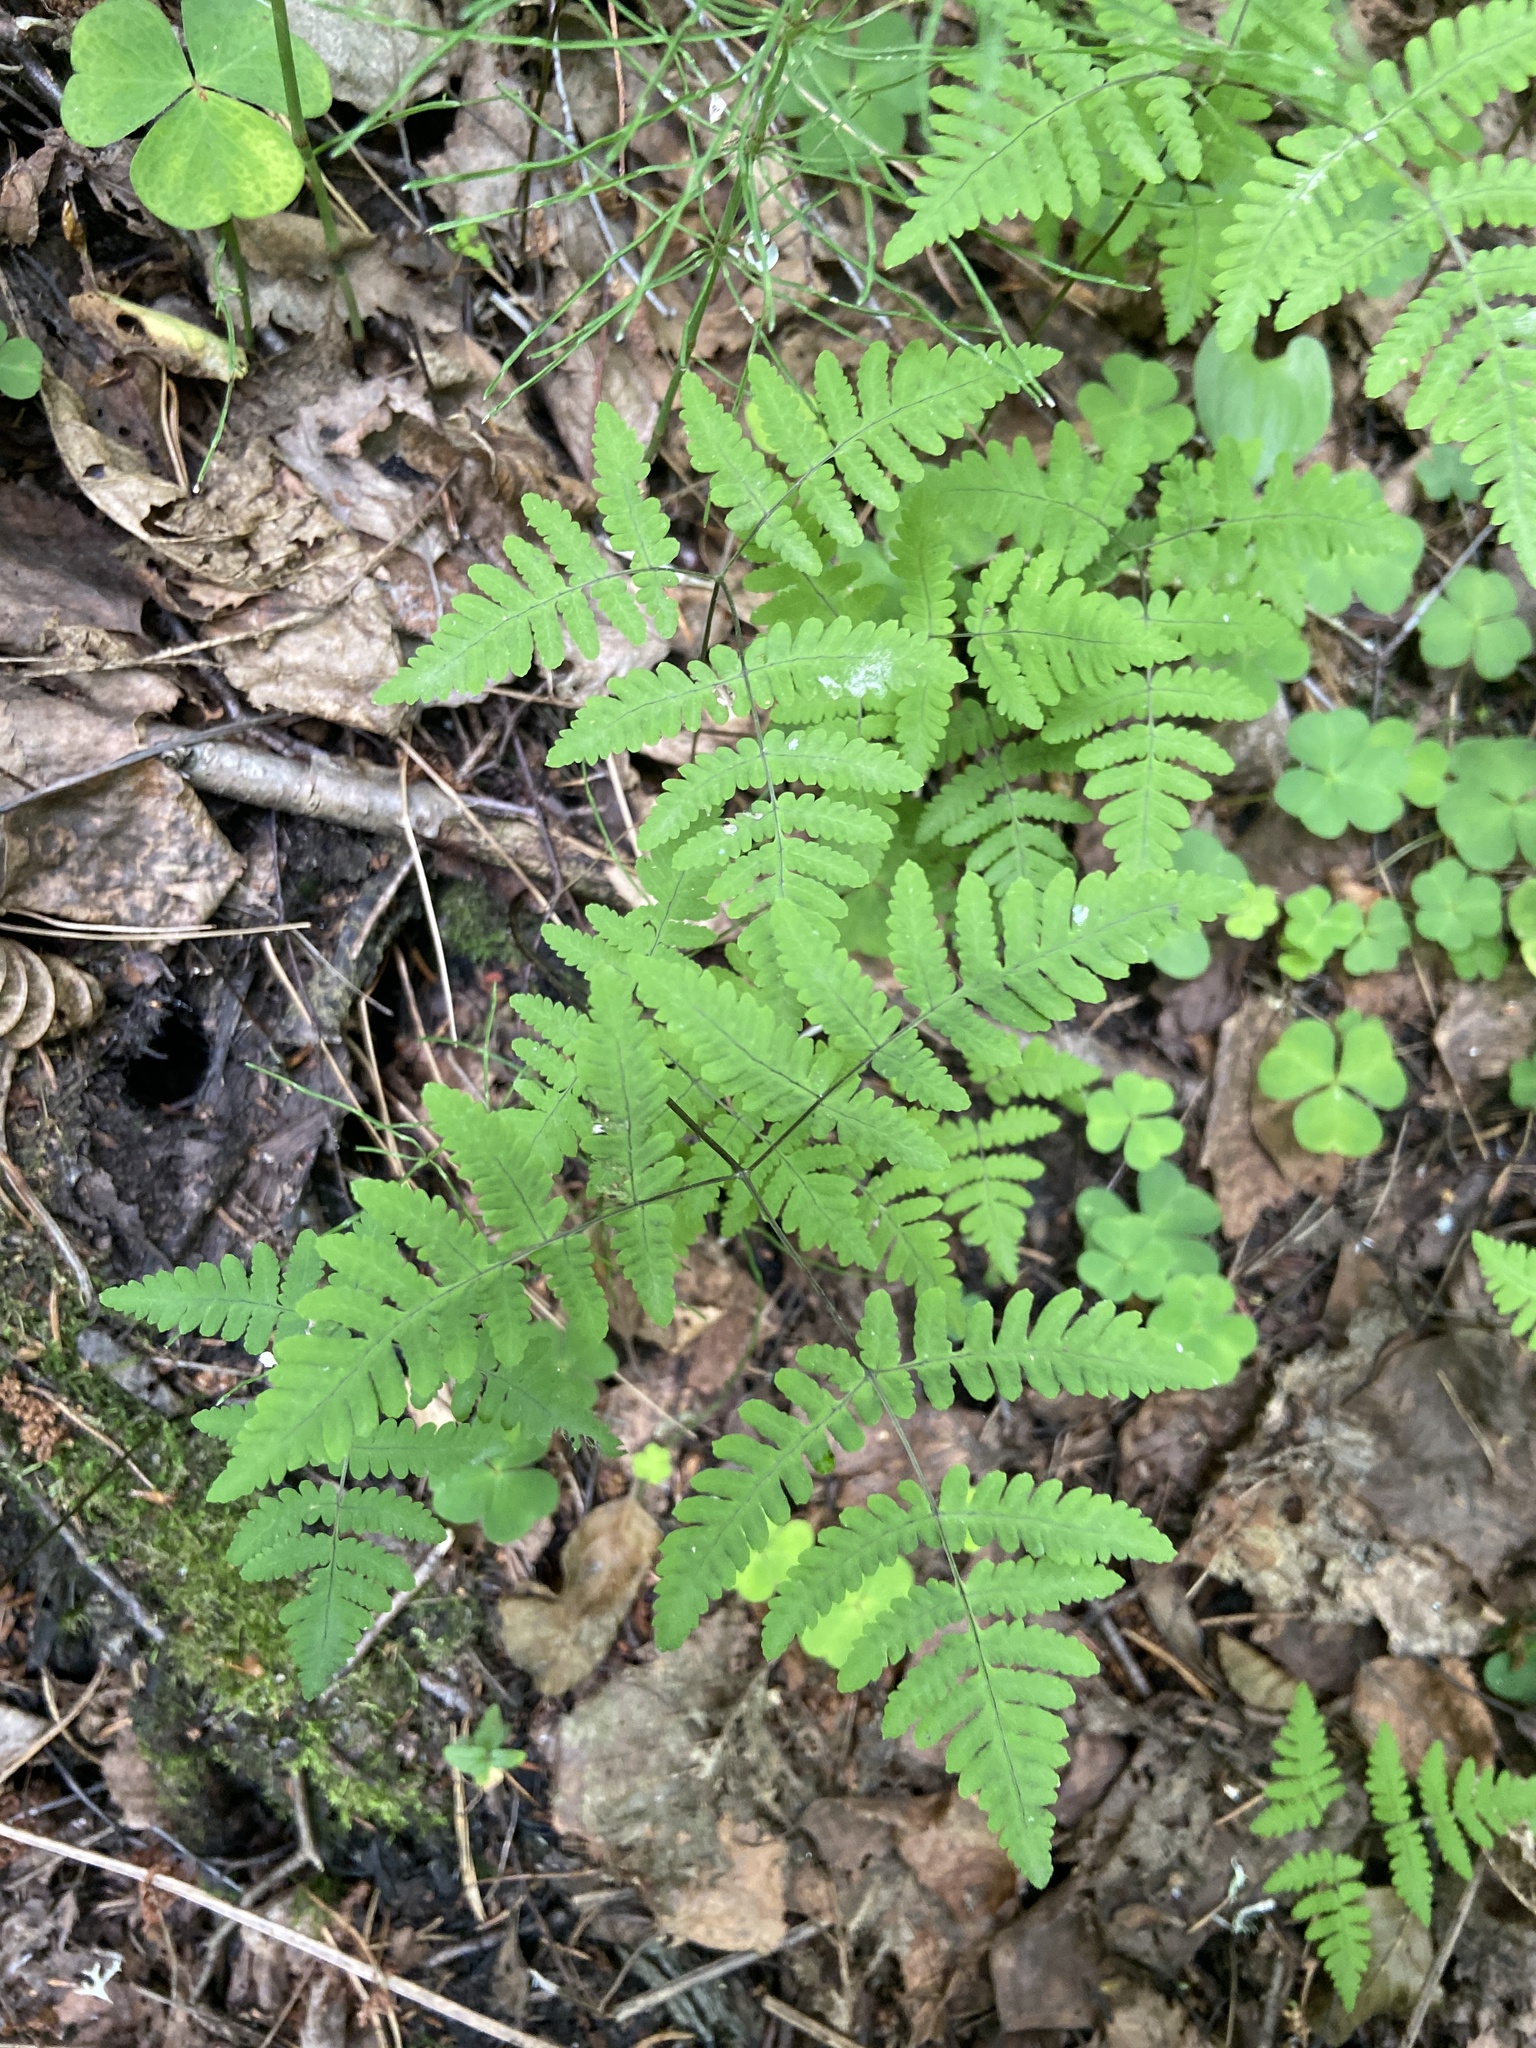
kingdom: Plantae
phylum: Tracheophyta
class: Polypodiopsida
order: Polypodiales
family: Cystopteridaceae
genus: Gymnocarpium
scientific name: Gymnocarpium dryopteris
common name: Oak fern
